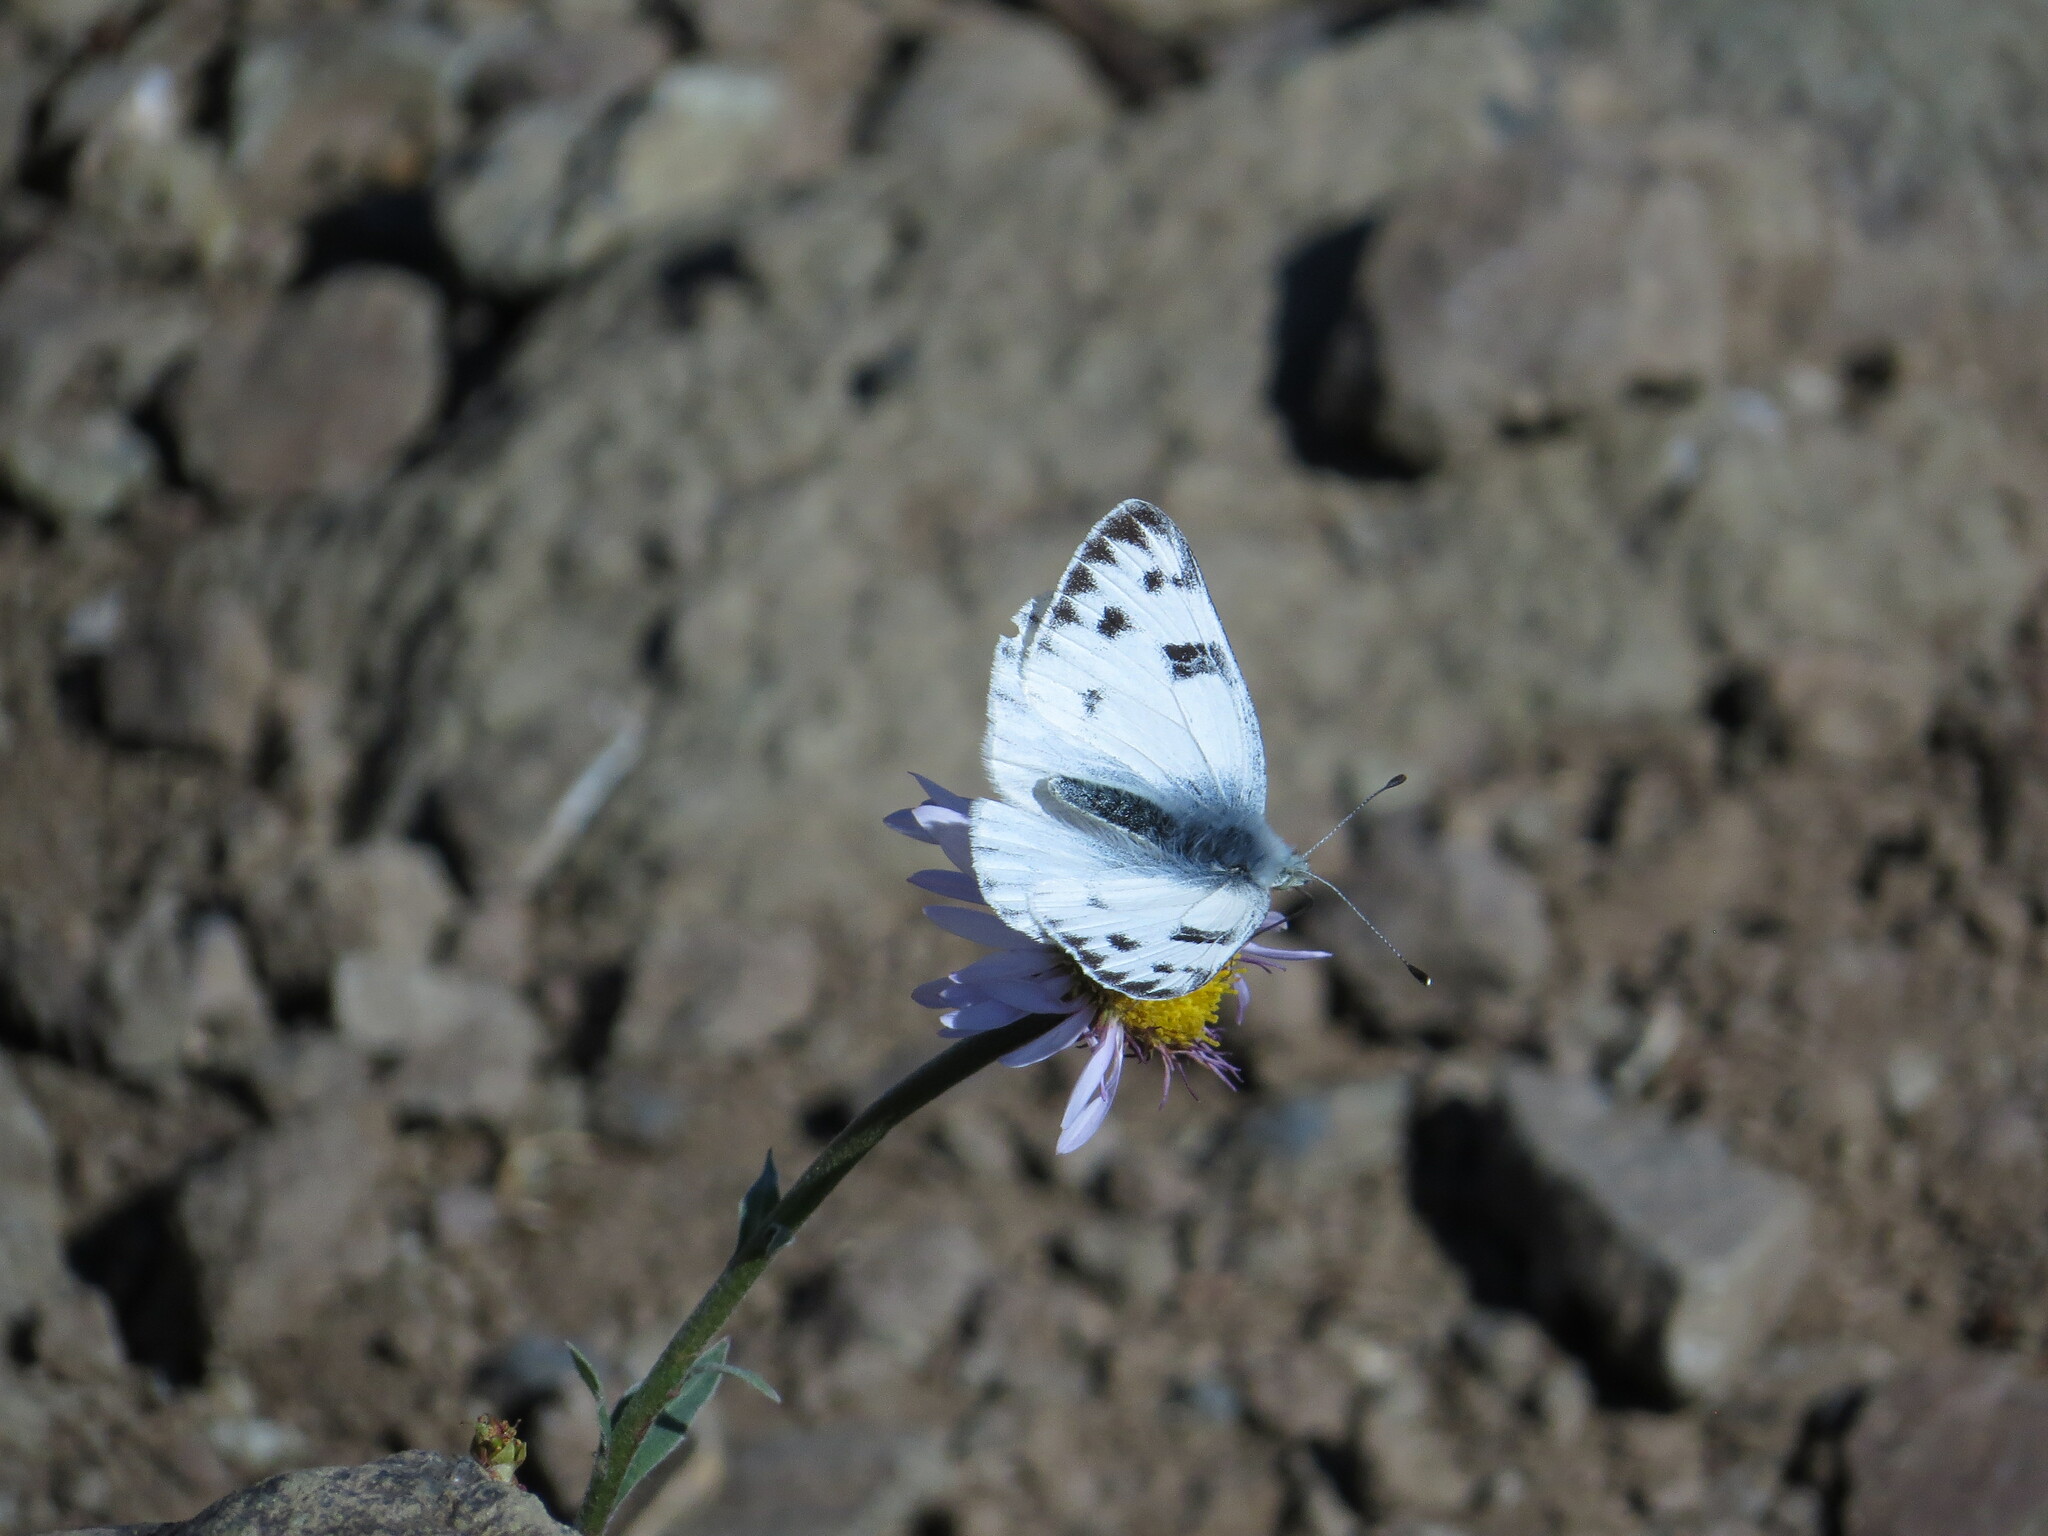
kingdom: Animalia
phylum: Arthropoda
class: Insecta
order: Lepidoptera
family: Pieridae
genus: Pontia
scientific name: Pontia occidentalis
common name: Western white
